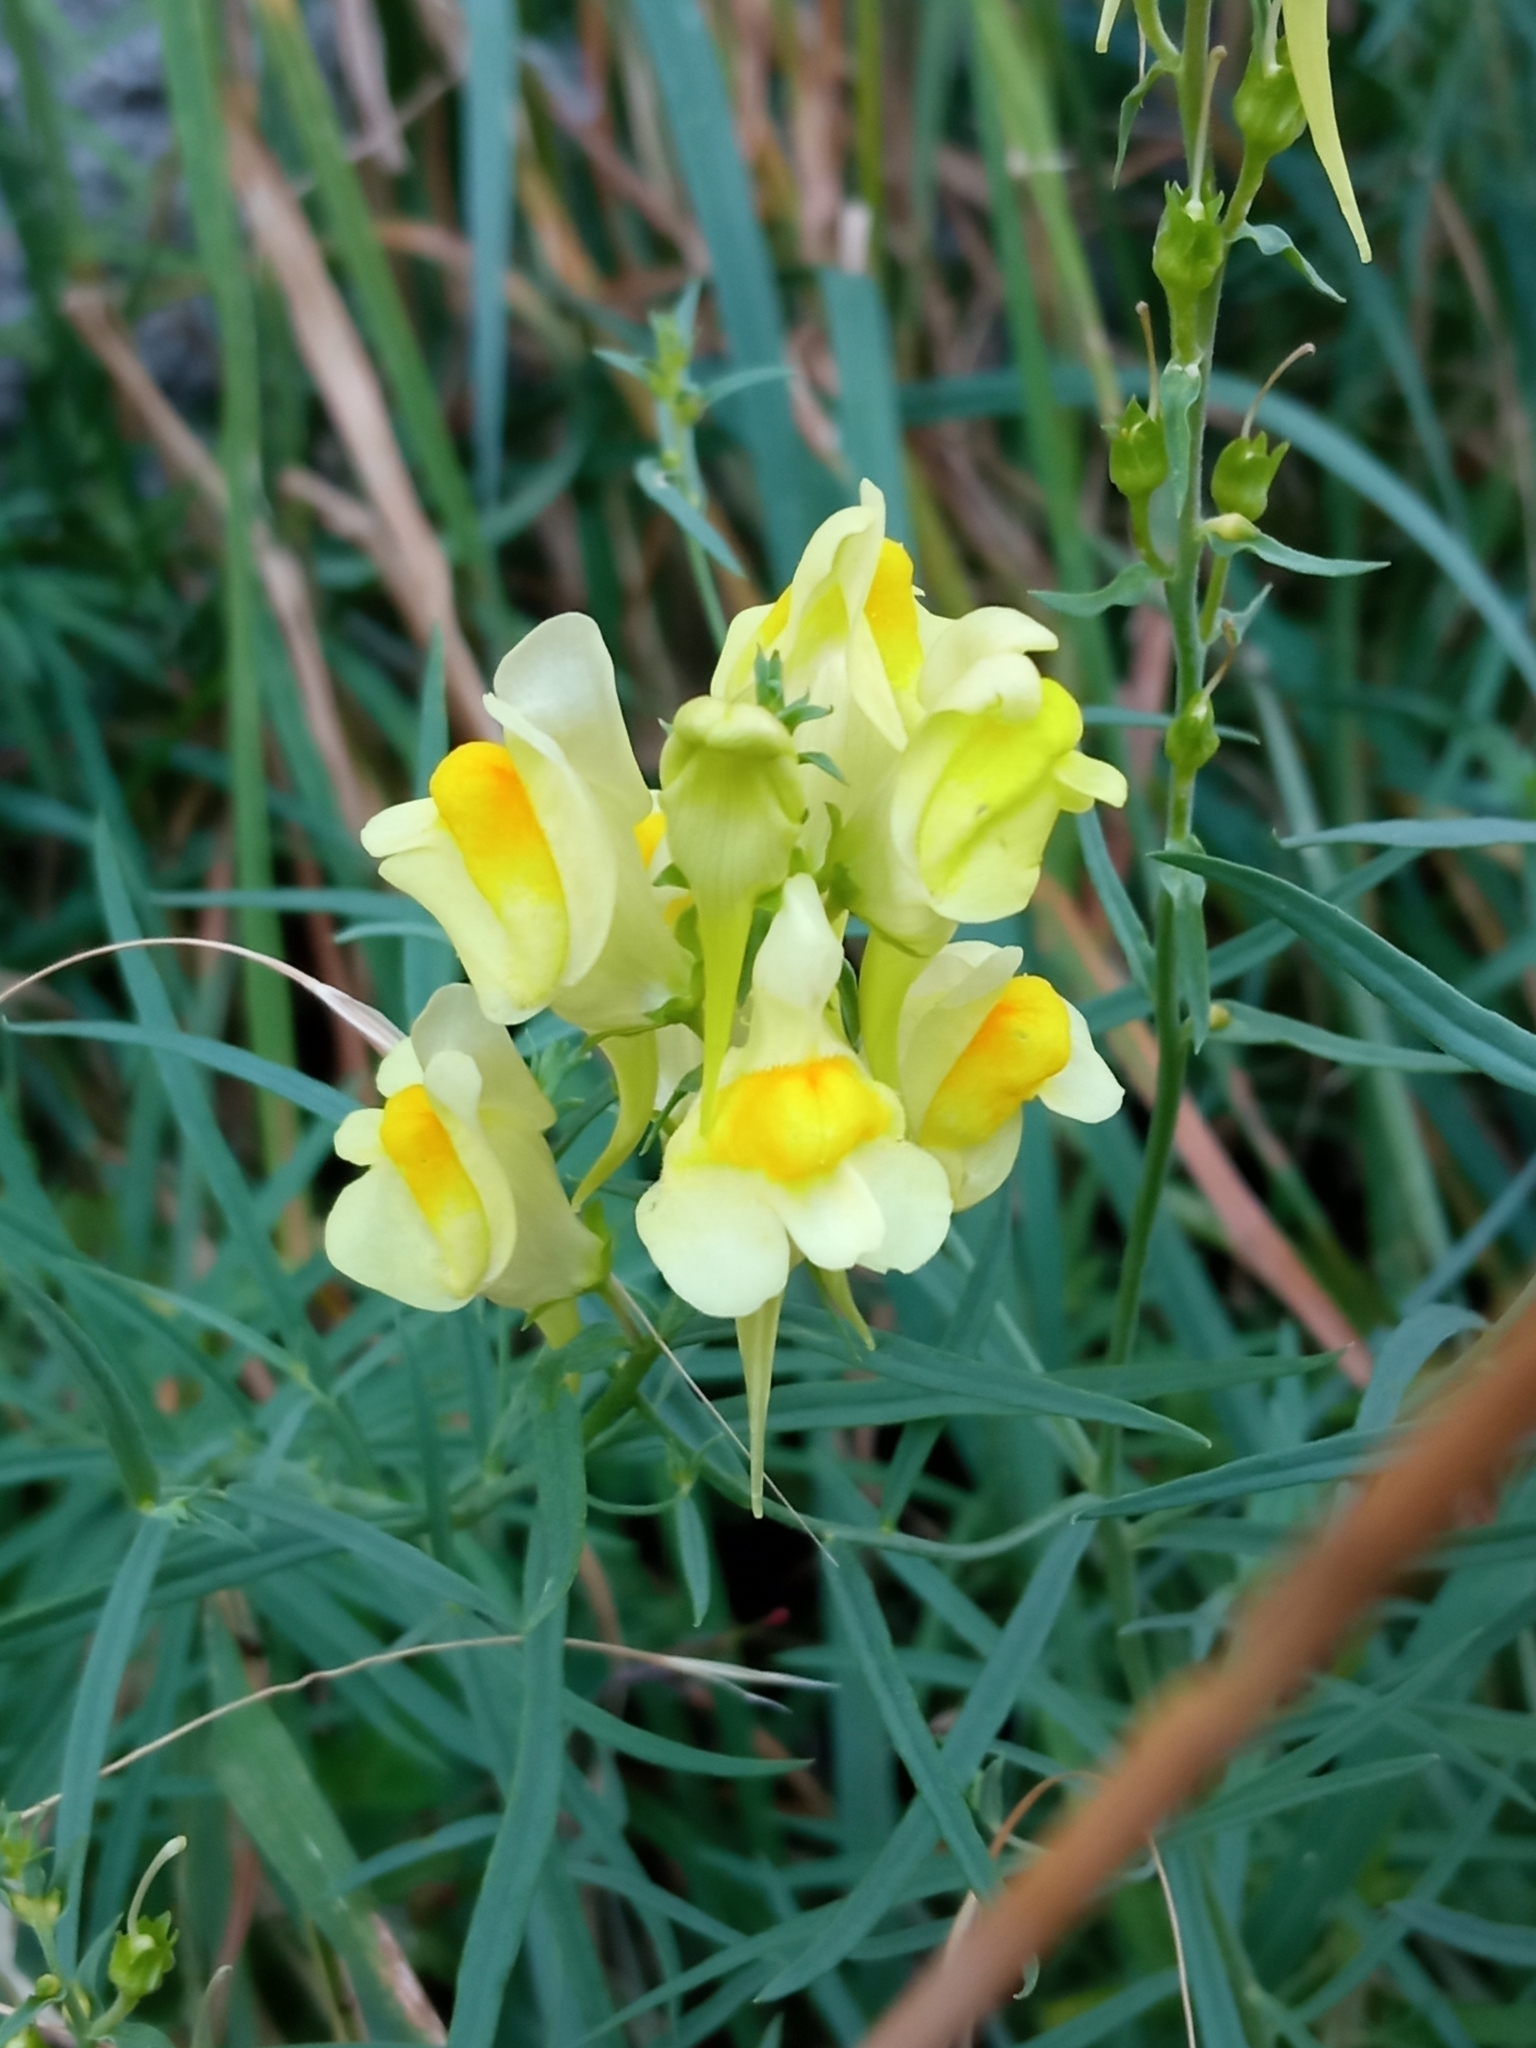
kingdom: Plantae
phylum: Tracheophyta
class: Magnoliopsida
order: Lamiales
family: Plantaginaceae
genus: Linaria
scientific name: Linaria vulgaris
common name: Butter and eggs
